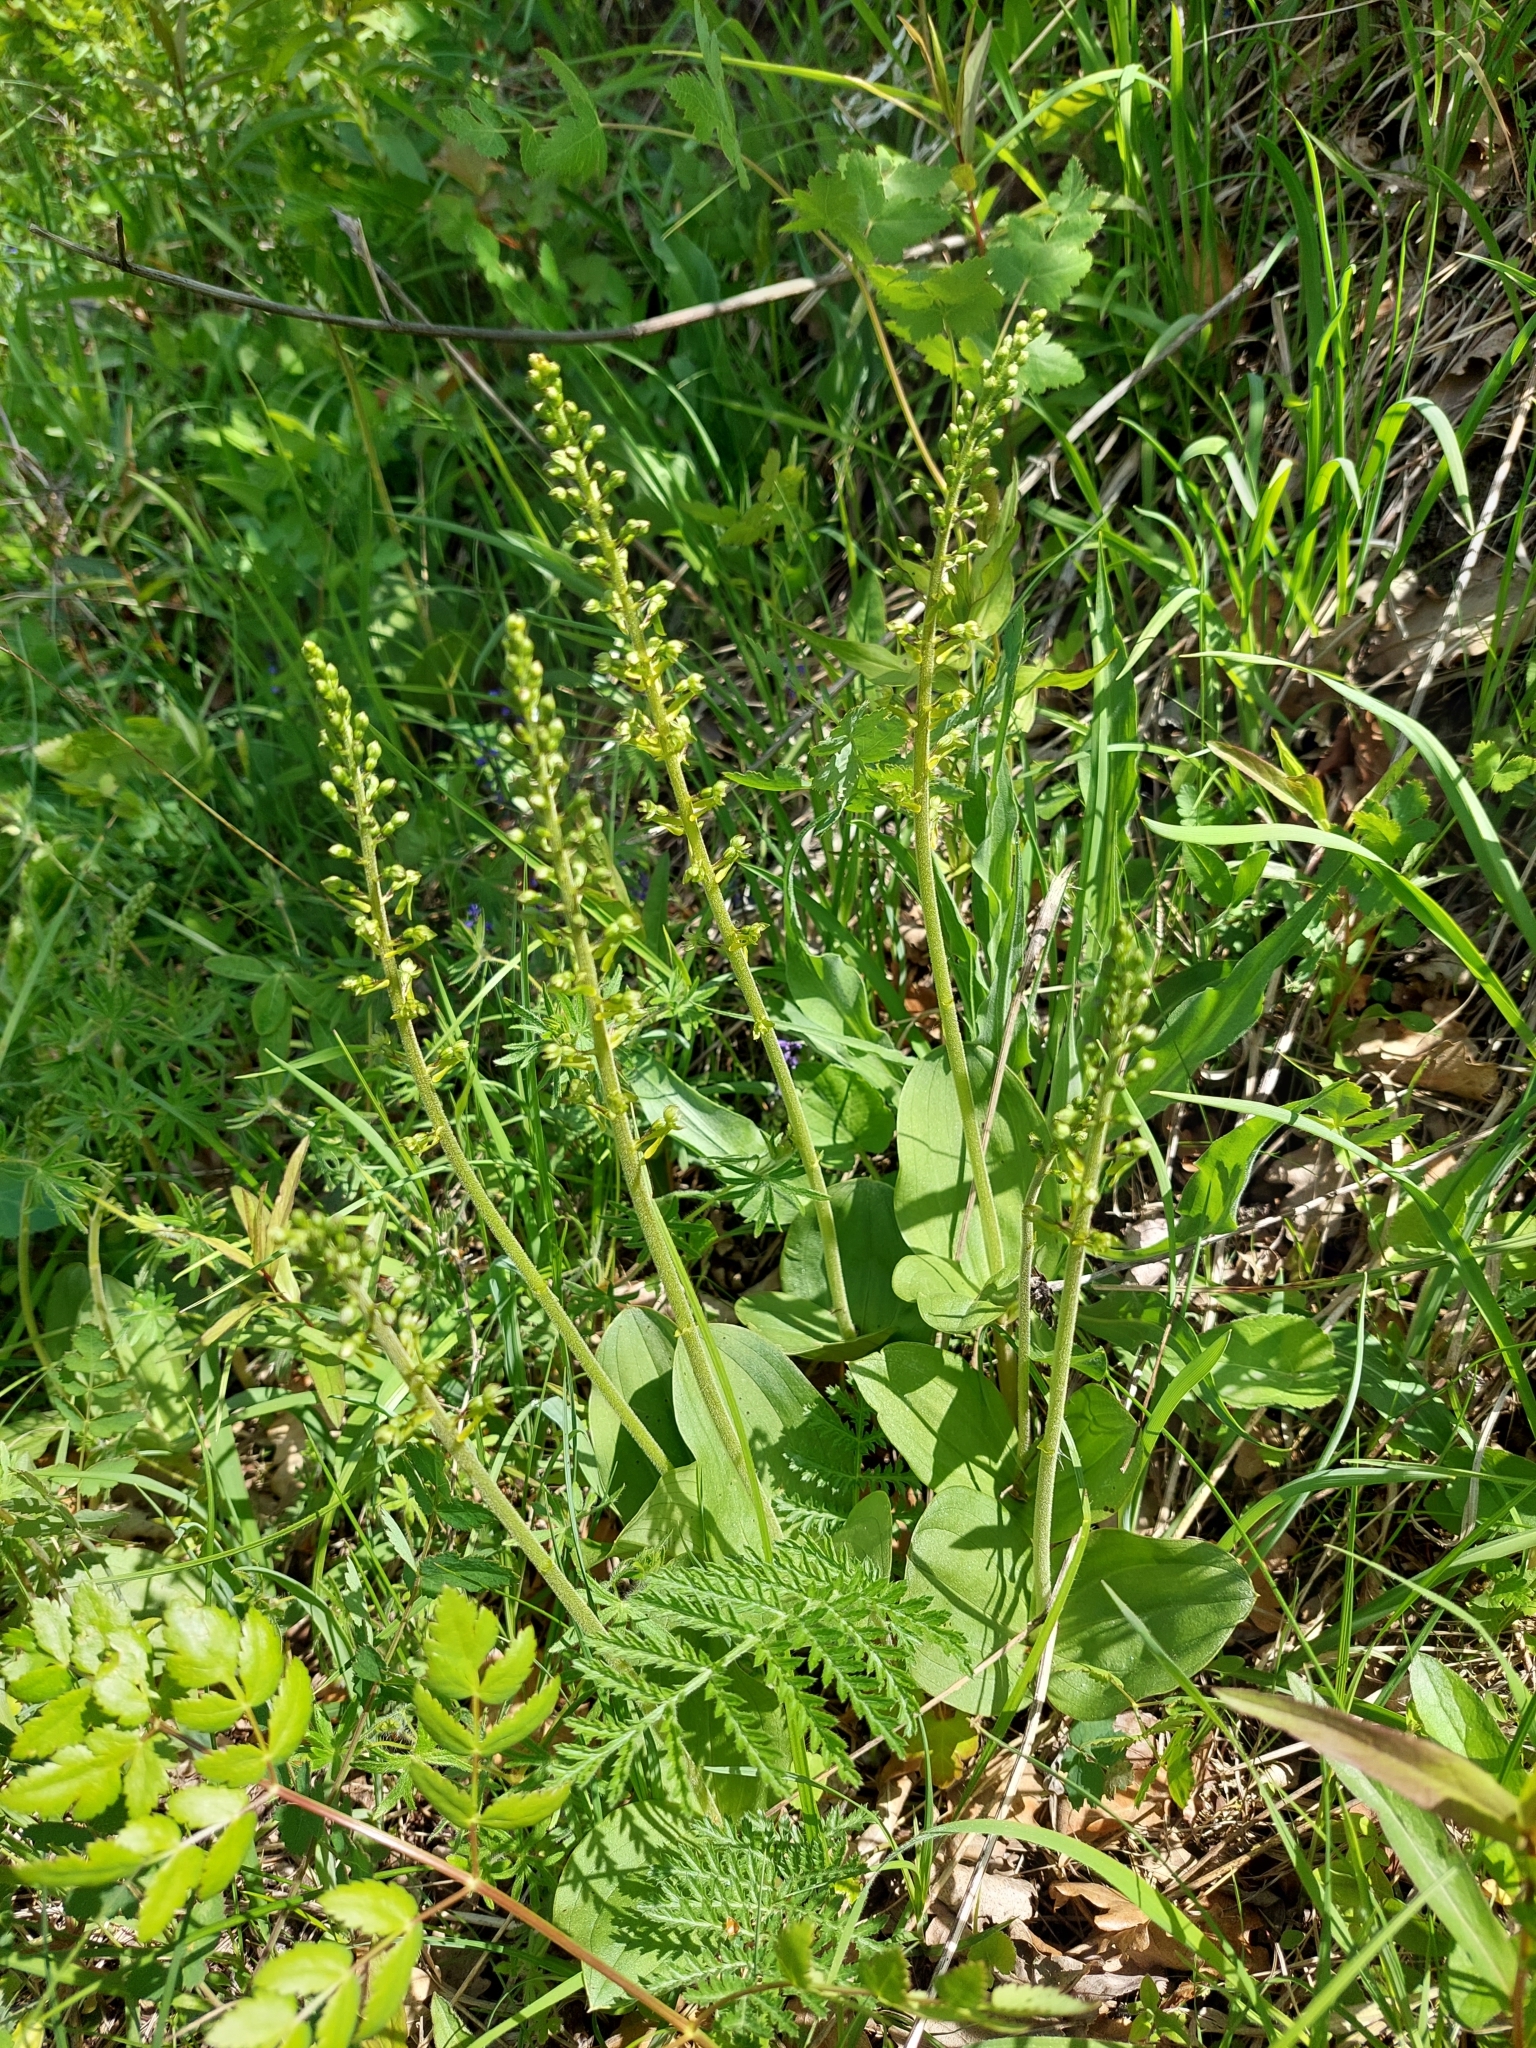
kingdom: Plantae
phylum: Tracheophyta
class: Liliopsida
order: Asparagales
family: Orchidaceae
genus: Neottia
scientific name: Neottia ovata
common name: Common twayblade
